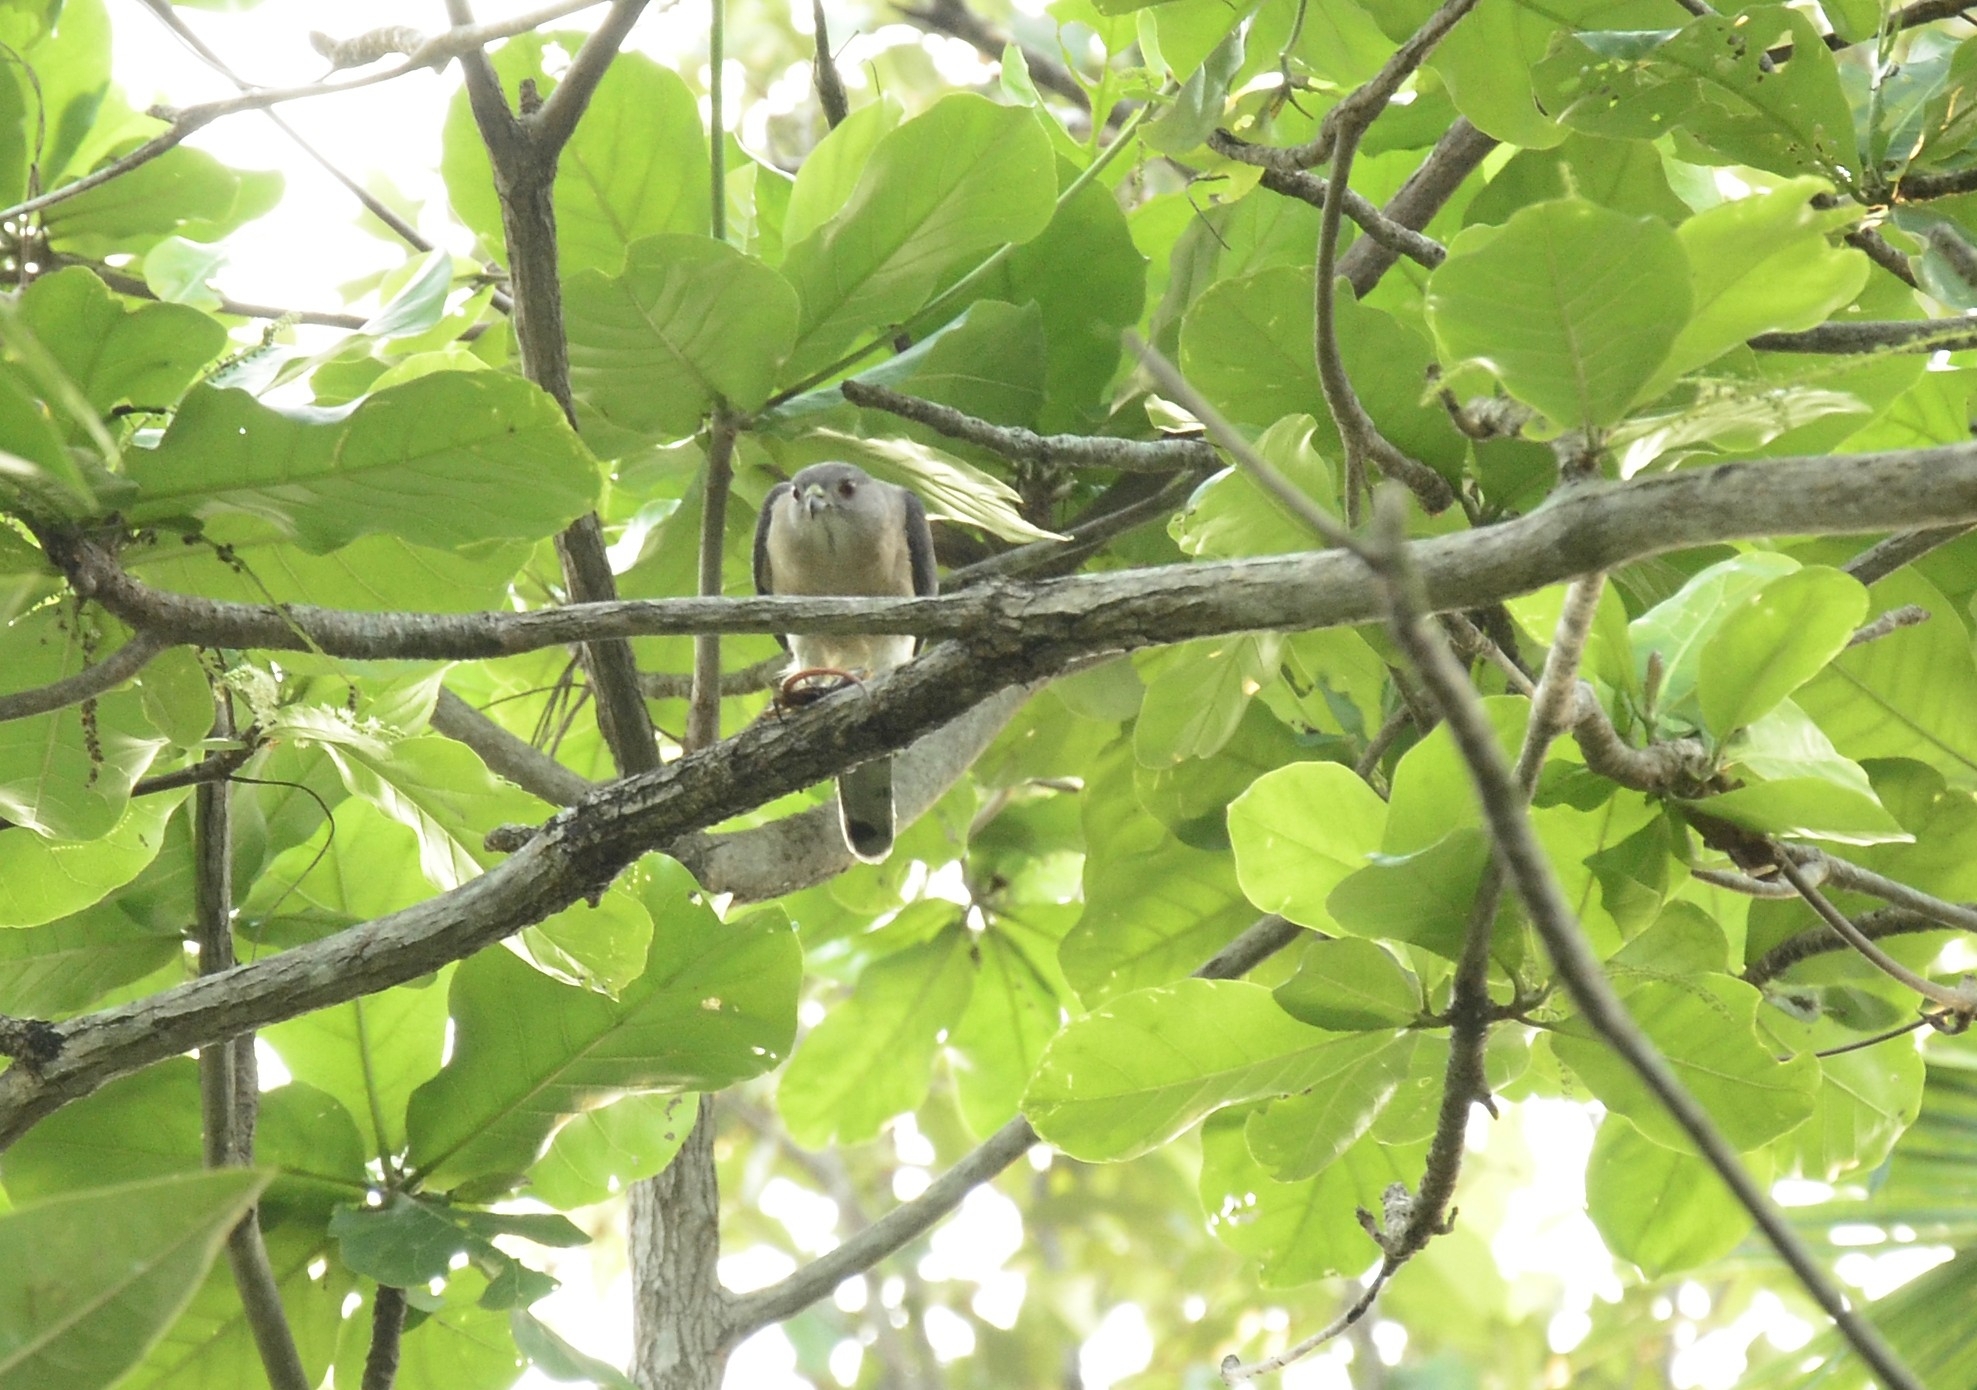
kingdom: Animalia
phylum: Chordata
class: Aves
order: Accipitriformes
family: Accipitridae
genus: Accipiter
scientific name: Accipiter badius
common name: Shikra
